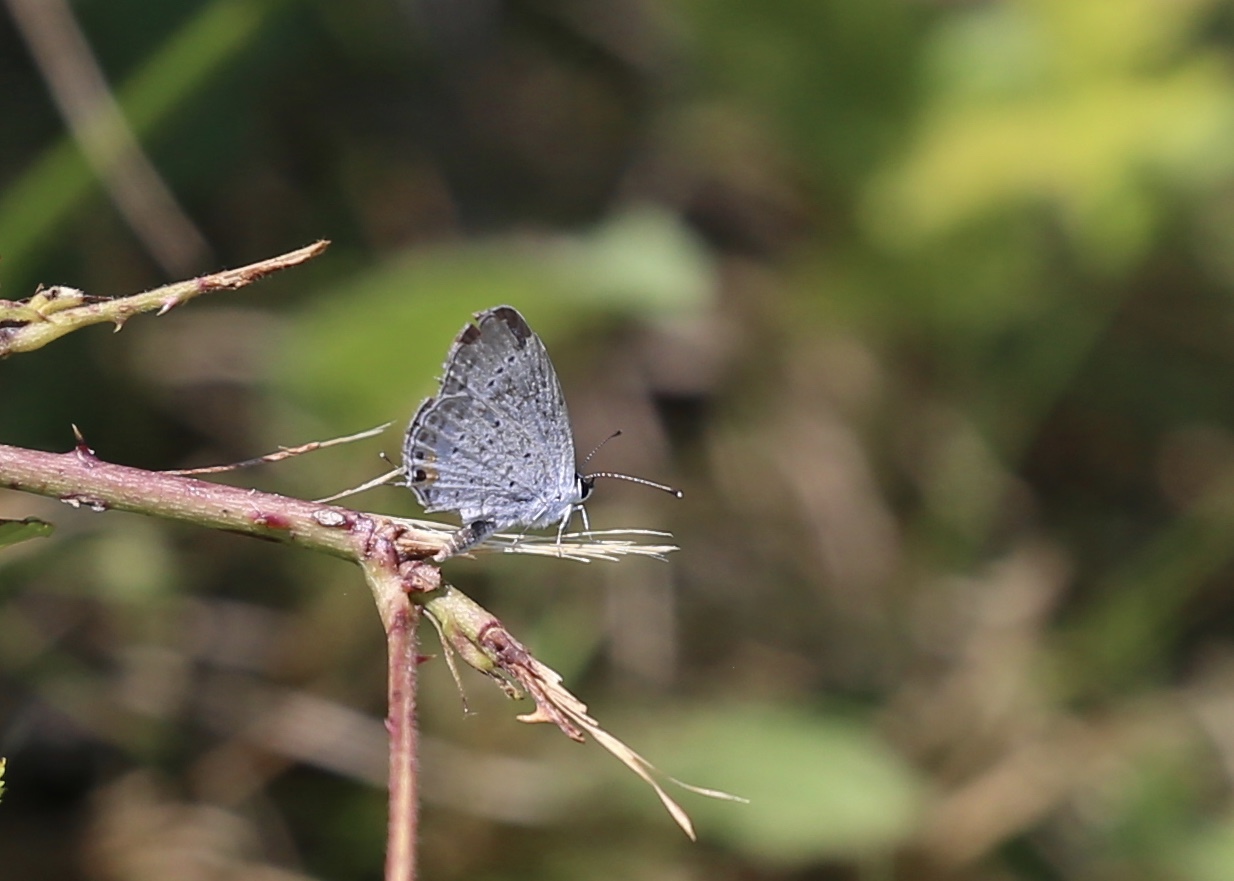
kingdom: Animalia
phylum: Arthropoda
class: Insecta
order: Lepidoptera
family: Lycaenidae
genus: Elkalyce
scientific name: Elkalyce comyntas
